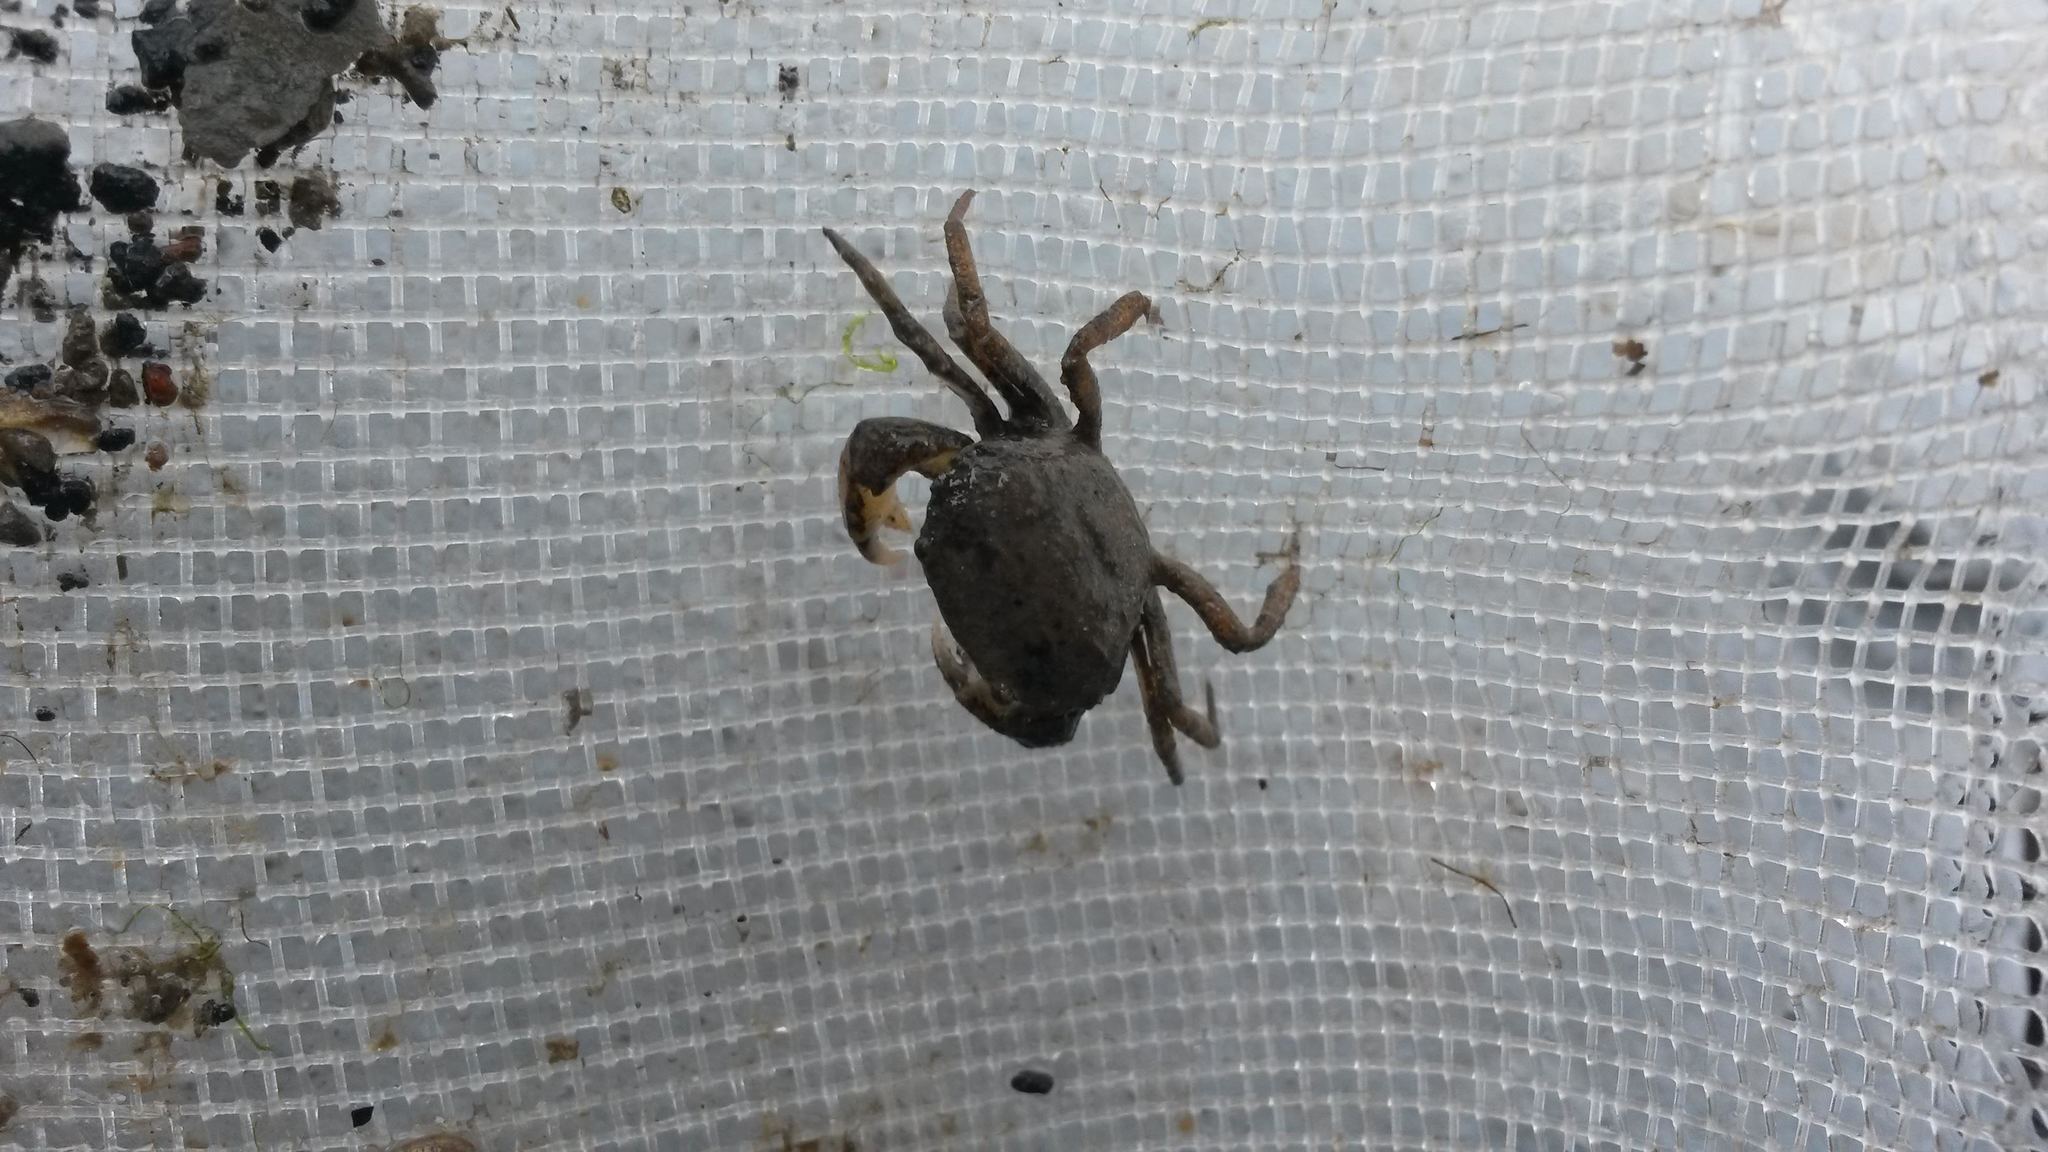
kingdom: Animalia
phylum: Arthropoda
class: Malacostraca
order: Decapoda
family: Varunidae
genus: Hemigrapsus
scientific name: Hemigrapsus sanguineus
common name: Asian shore crab
